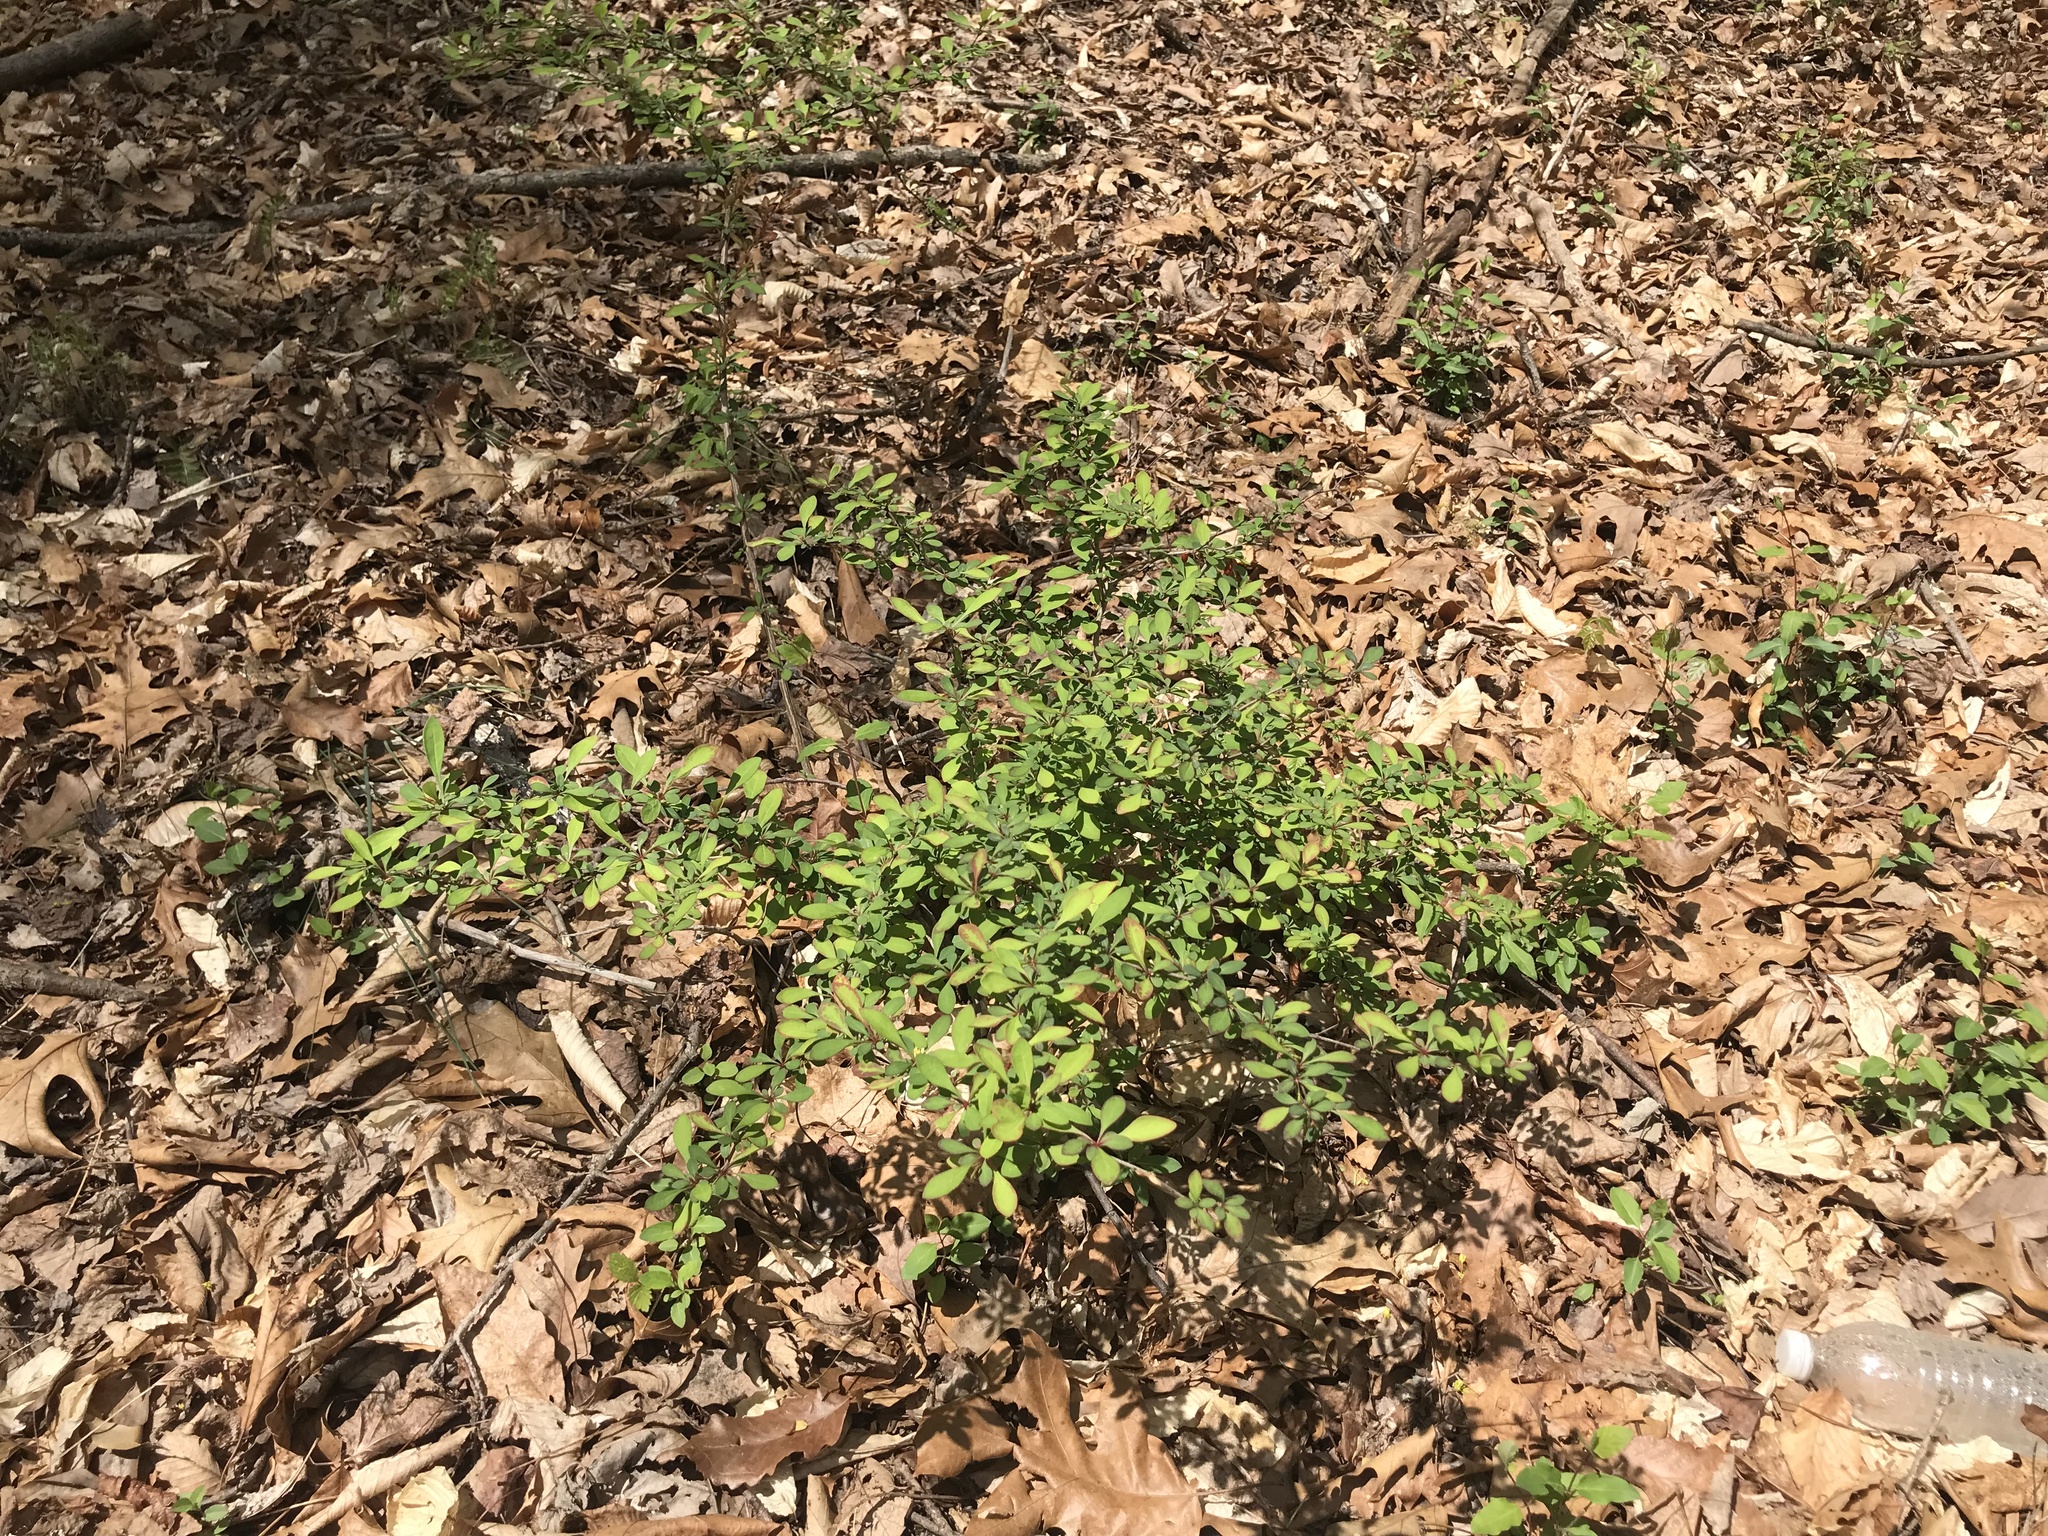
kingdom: Plantae
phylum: Tracheophyta
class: Magnoliopsida
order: Ranunculales
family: Berberidaceae
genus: Berberis
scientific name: Berberis thunbergii
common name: Japanese barberry
